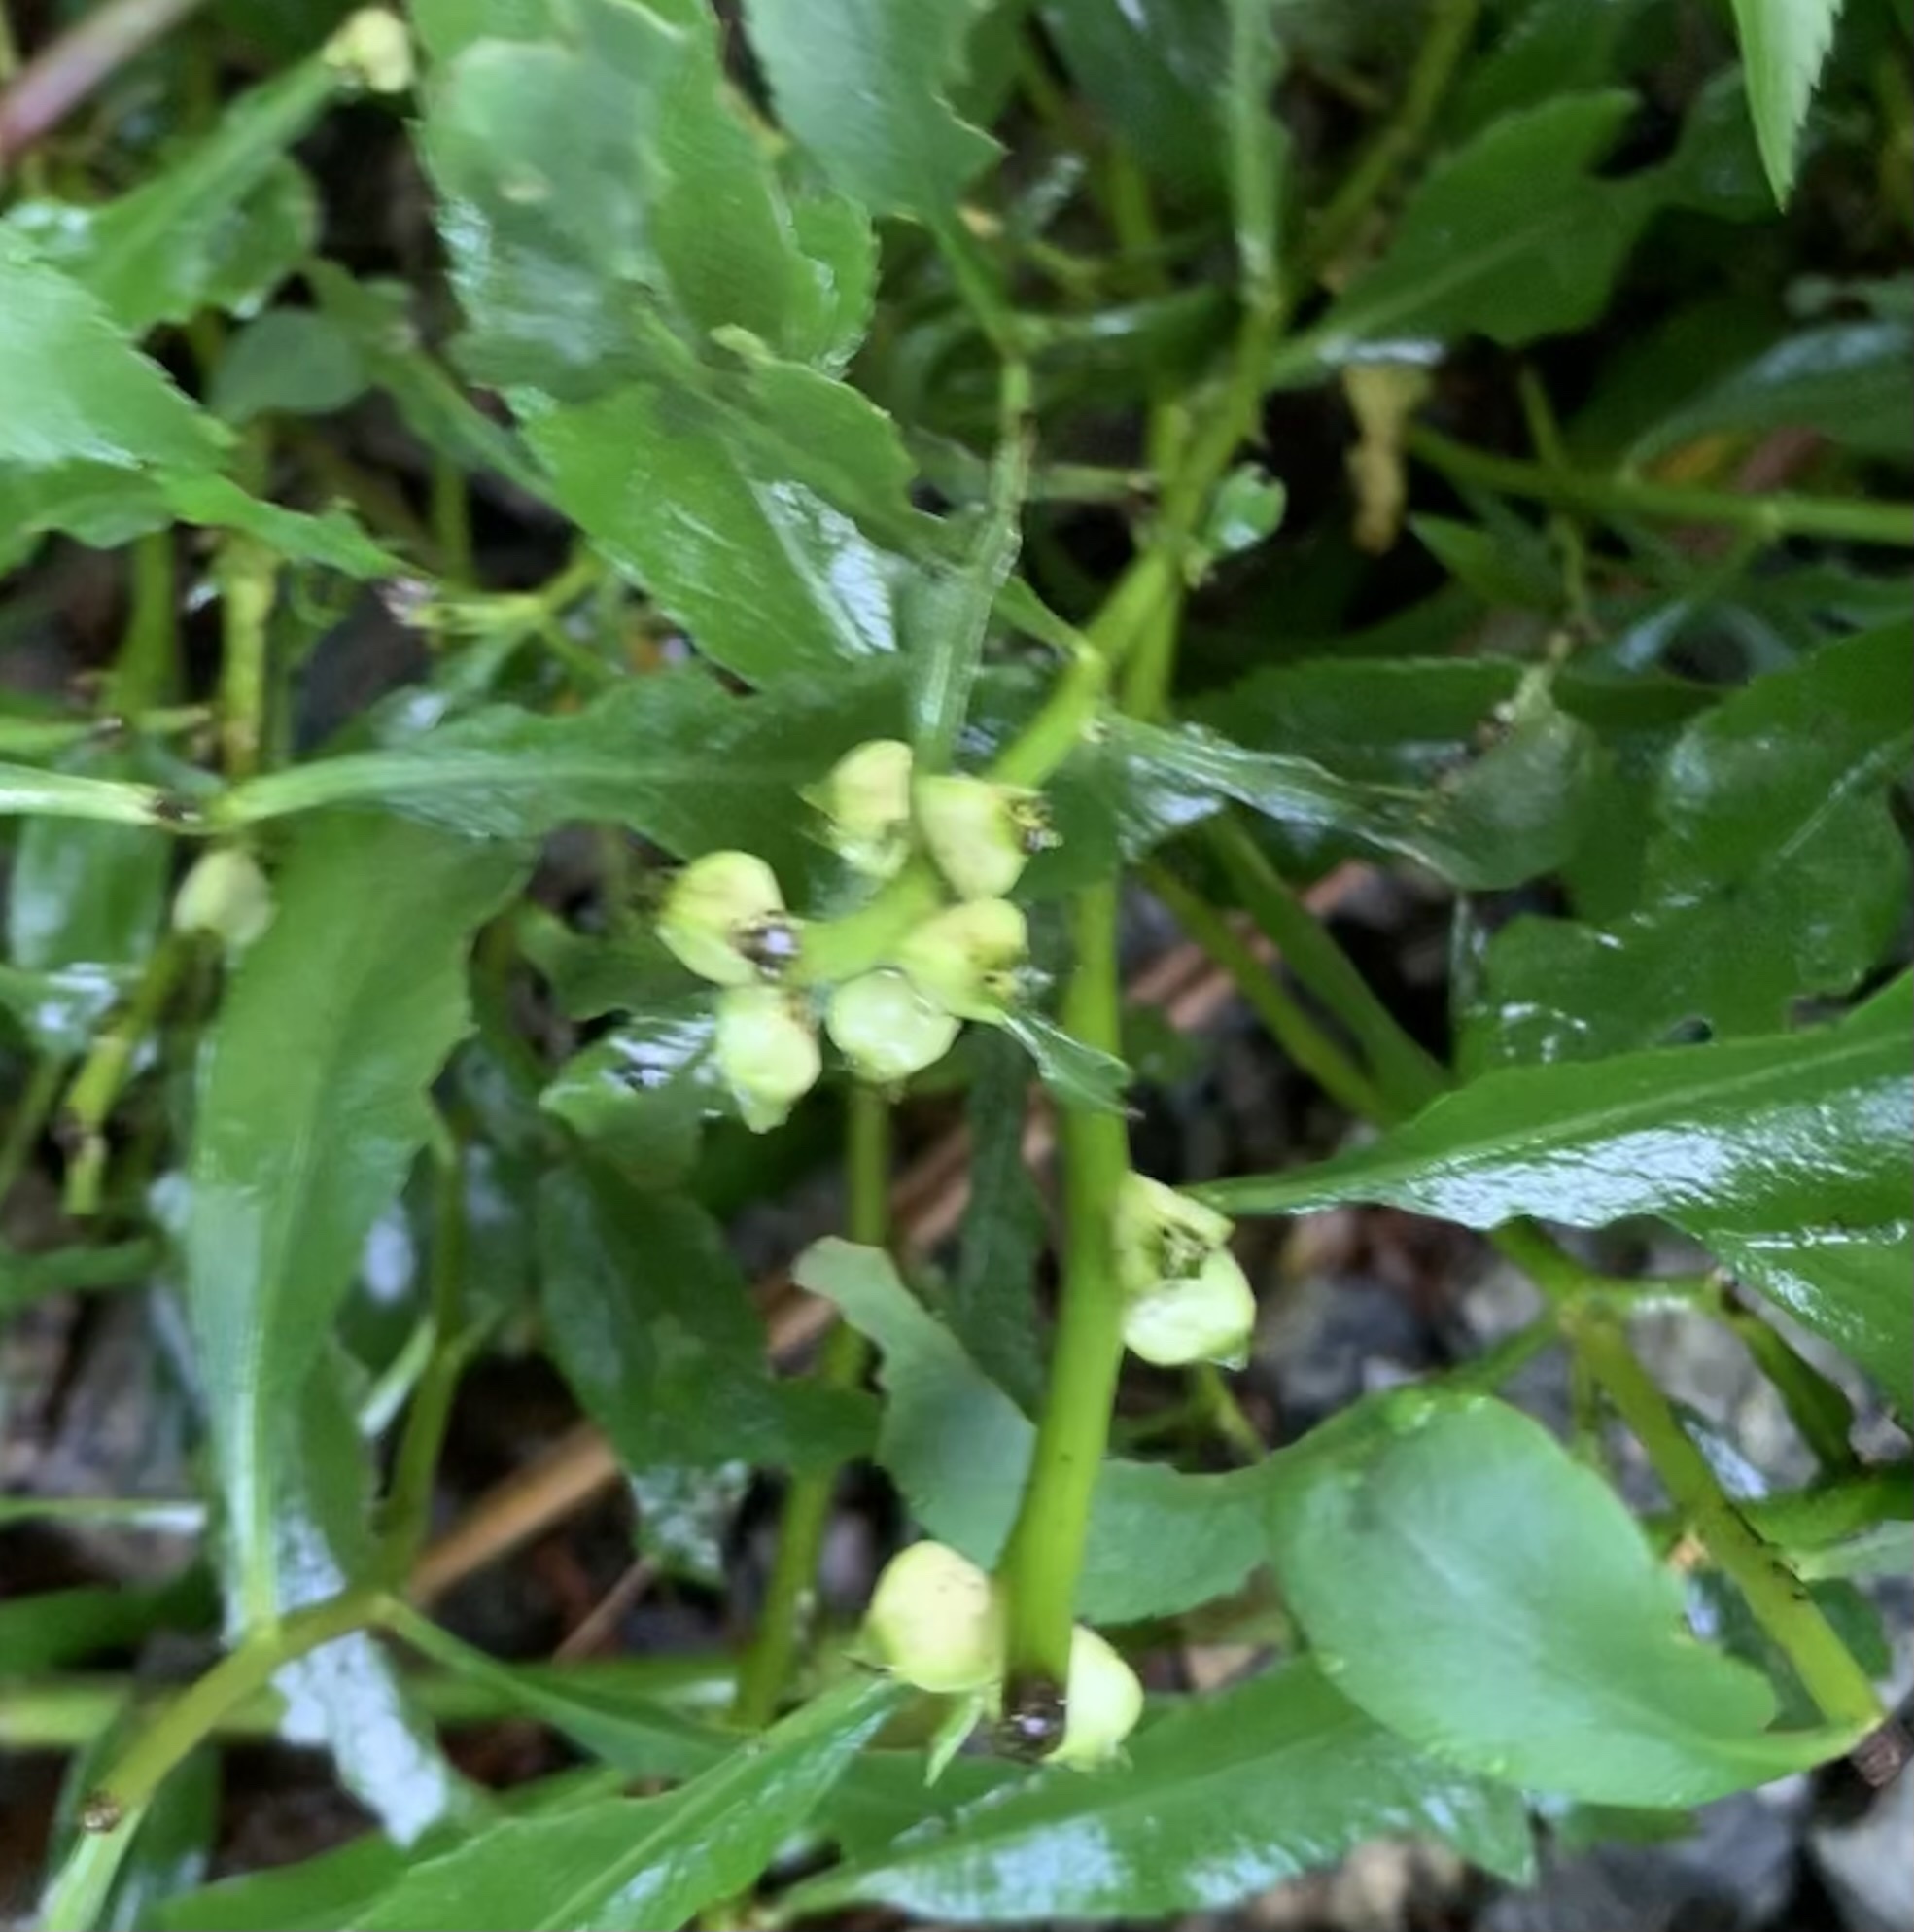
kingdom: Plantae
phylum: Tracheophyta
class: Magnoliopsida
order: Saxifragales
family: Haloragaceae
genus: Proserpinaca
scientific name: Proserpinaca palustris
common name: Marsh mermaidweed
